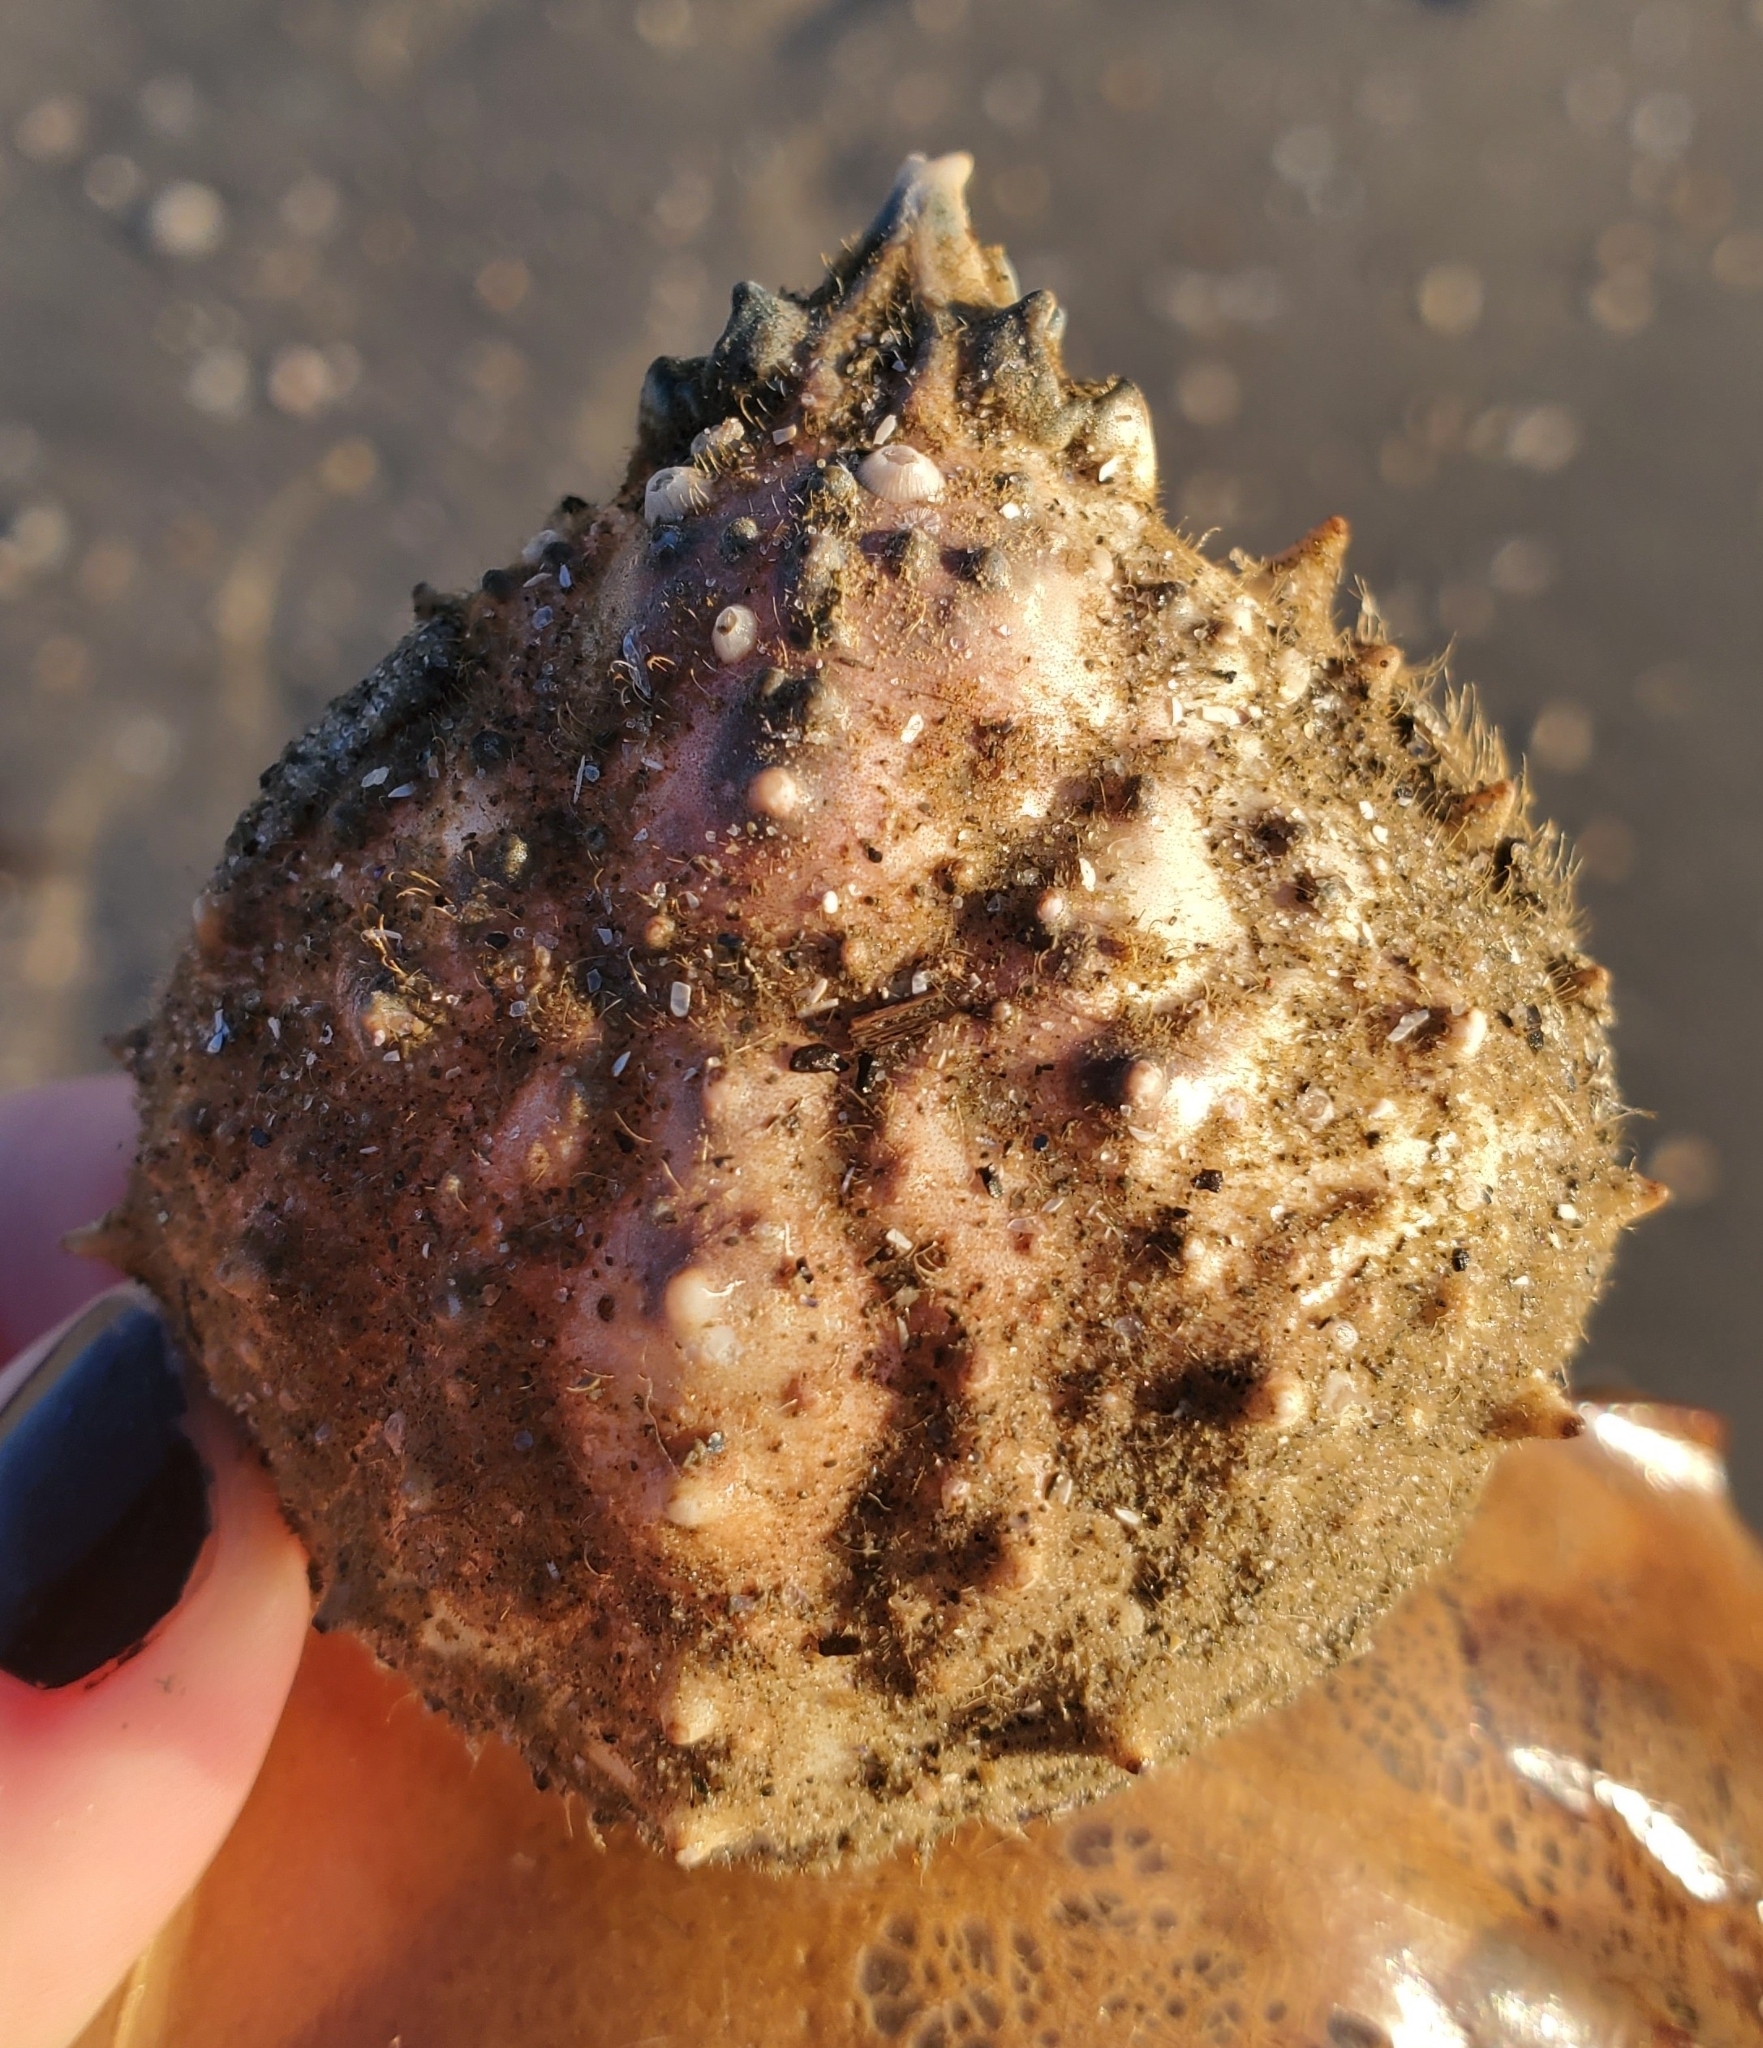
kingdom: Animalia
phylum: Arthropoda
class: Malacostraca
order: Decapoda
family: Epialtidae
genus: Libinia
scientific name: Libinia emarginata
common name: Common spider crab
